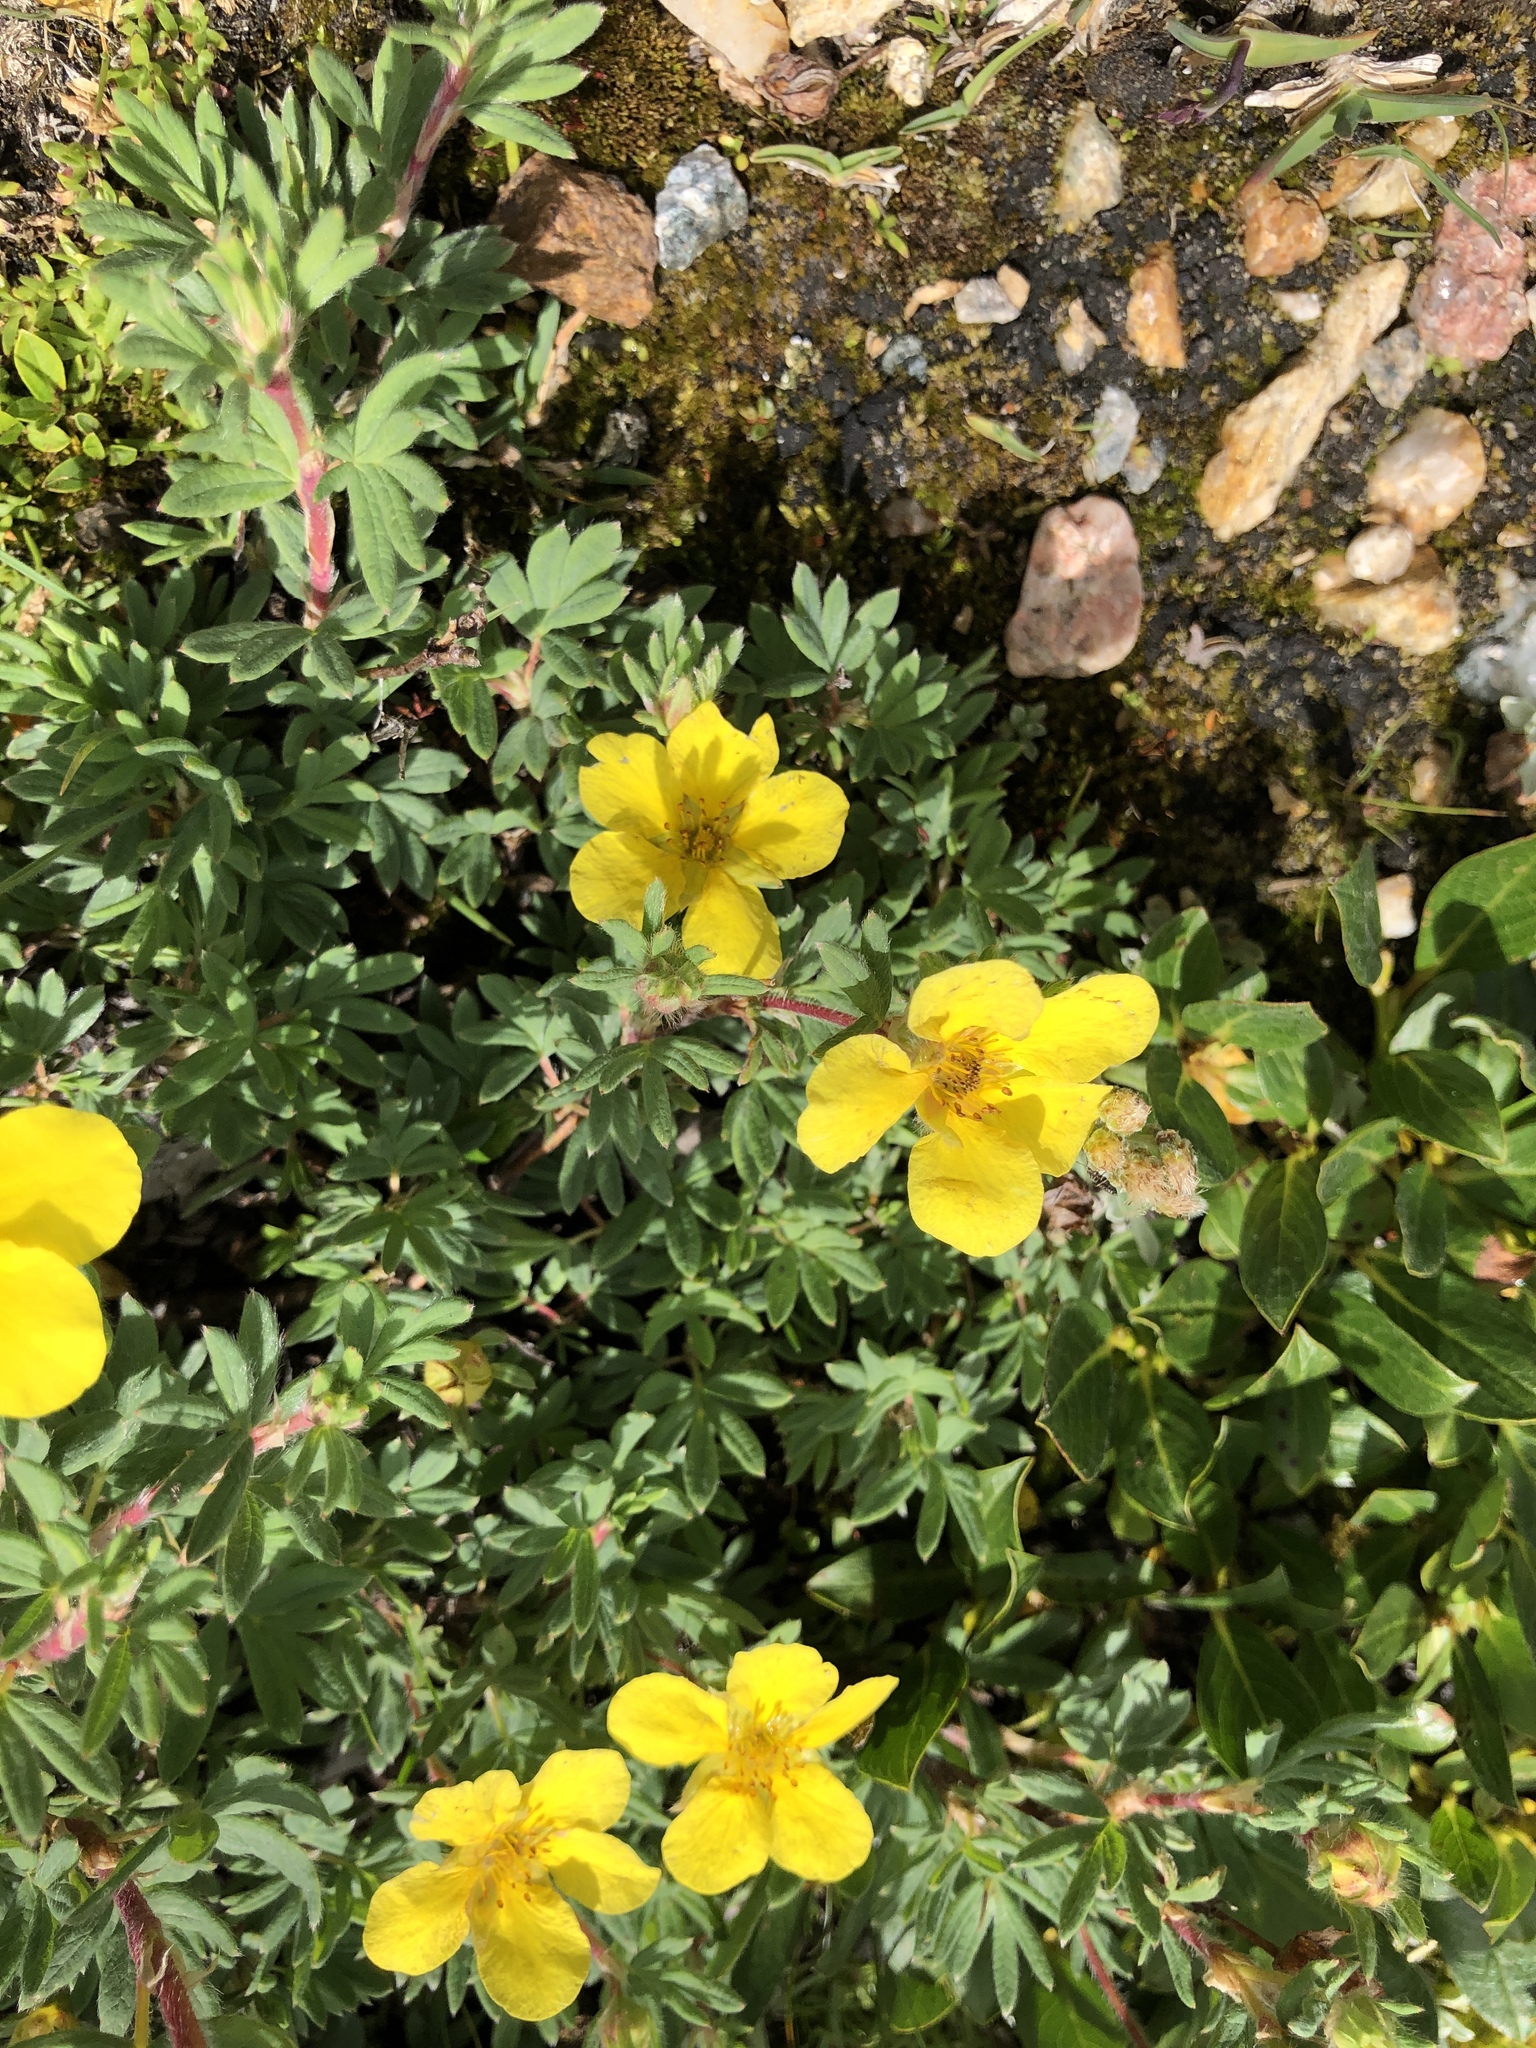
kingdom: Plantae
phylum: Tracheophyta
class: Magnoliopsida
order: Rosales
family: Rosaceae
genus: Dasiphora
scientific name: Dasiphora fruticosa
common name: Shrubby cinquefoil
